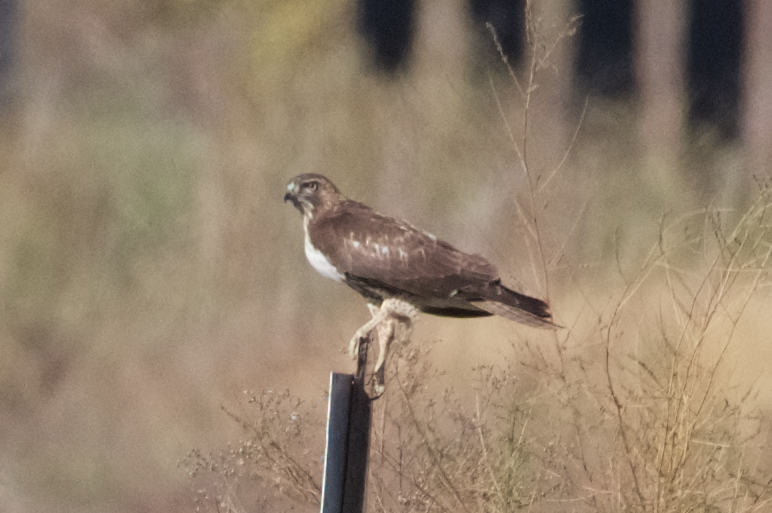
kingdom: Animalia
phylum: Chordata
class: Aves
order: Accipitriformes
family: Accipitridae
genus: Buteo
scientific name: Buteo jamaicensis
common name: Red-tailed hawk
